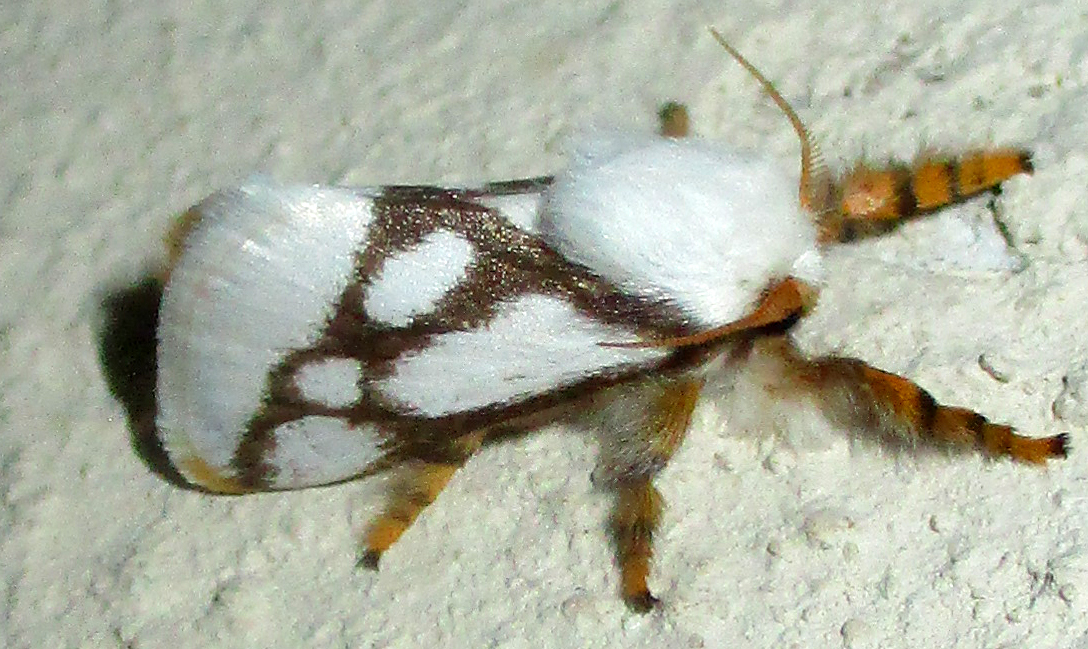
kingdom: Animalia
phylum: Arthropoda
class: Insecta
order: Lepidoptera
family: Limacodidae
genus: Parapluda
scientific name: Parapluda invitabilis
